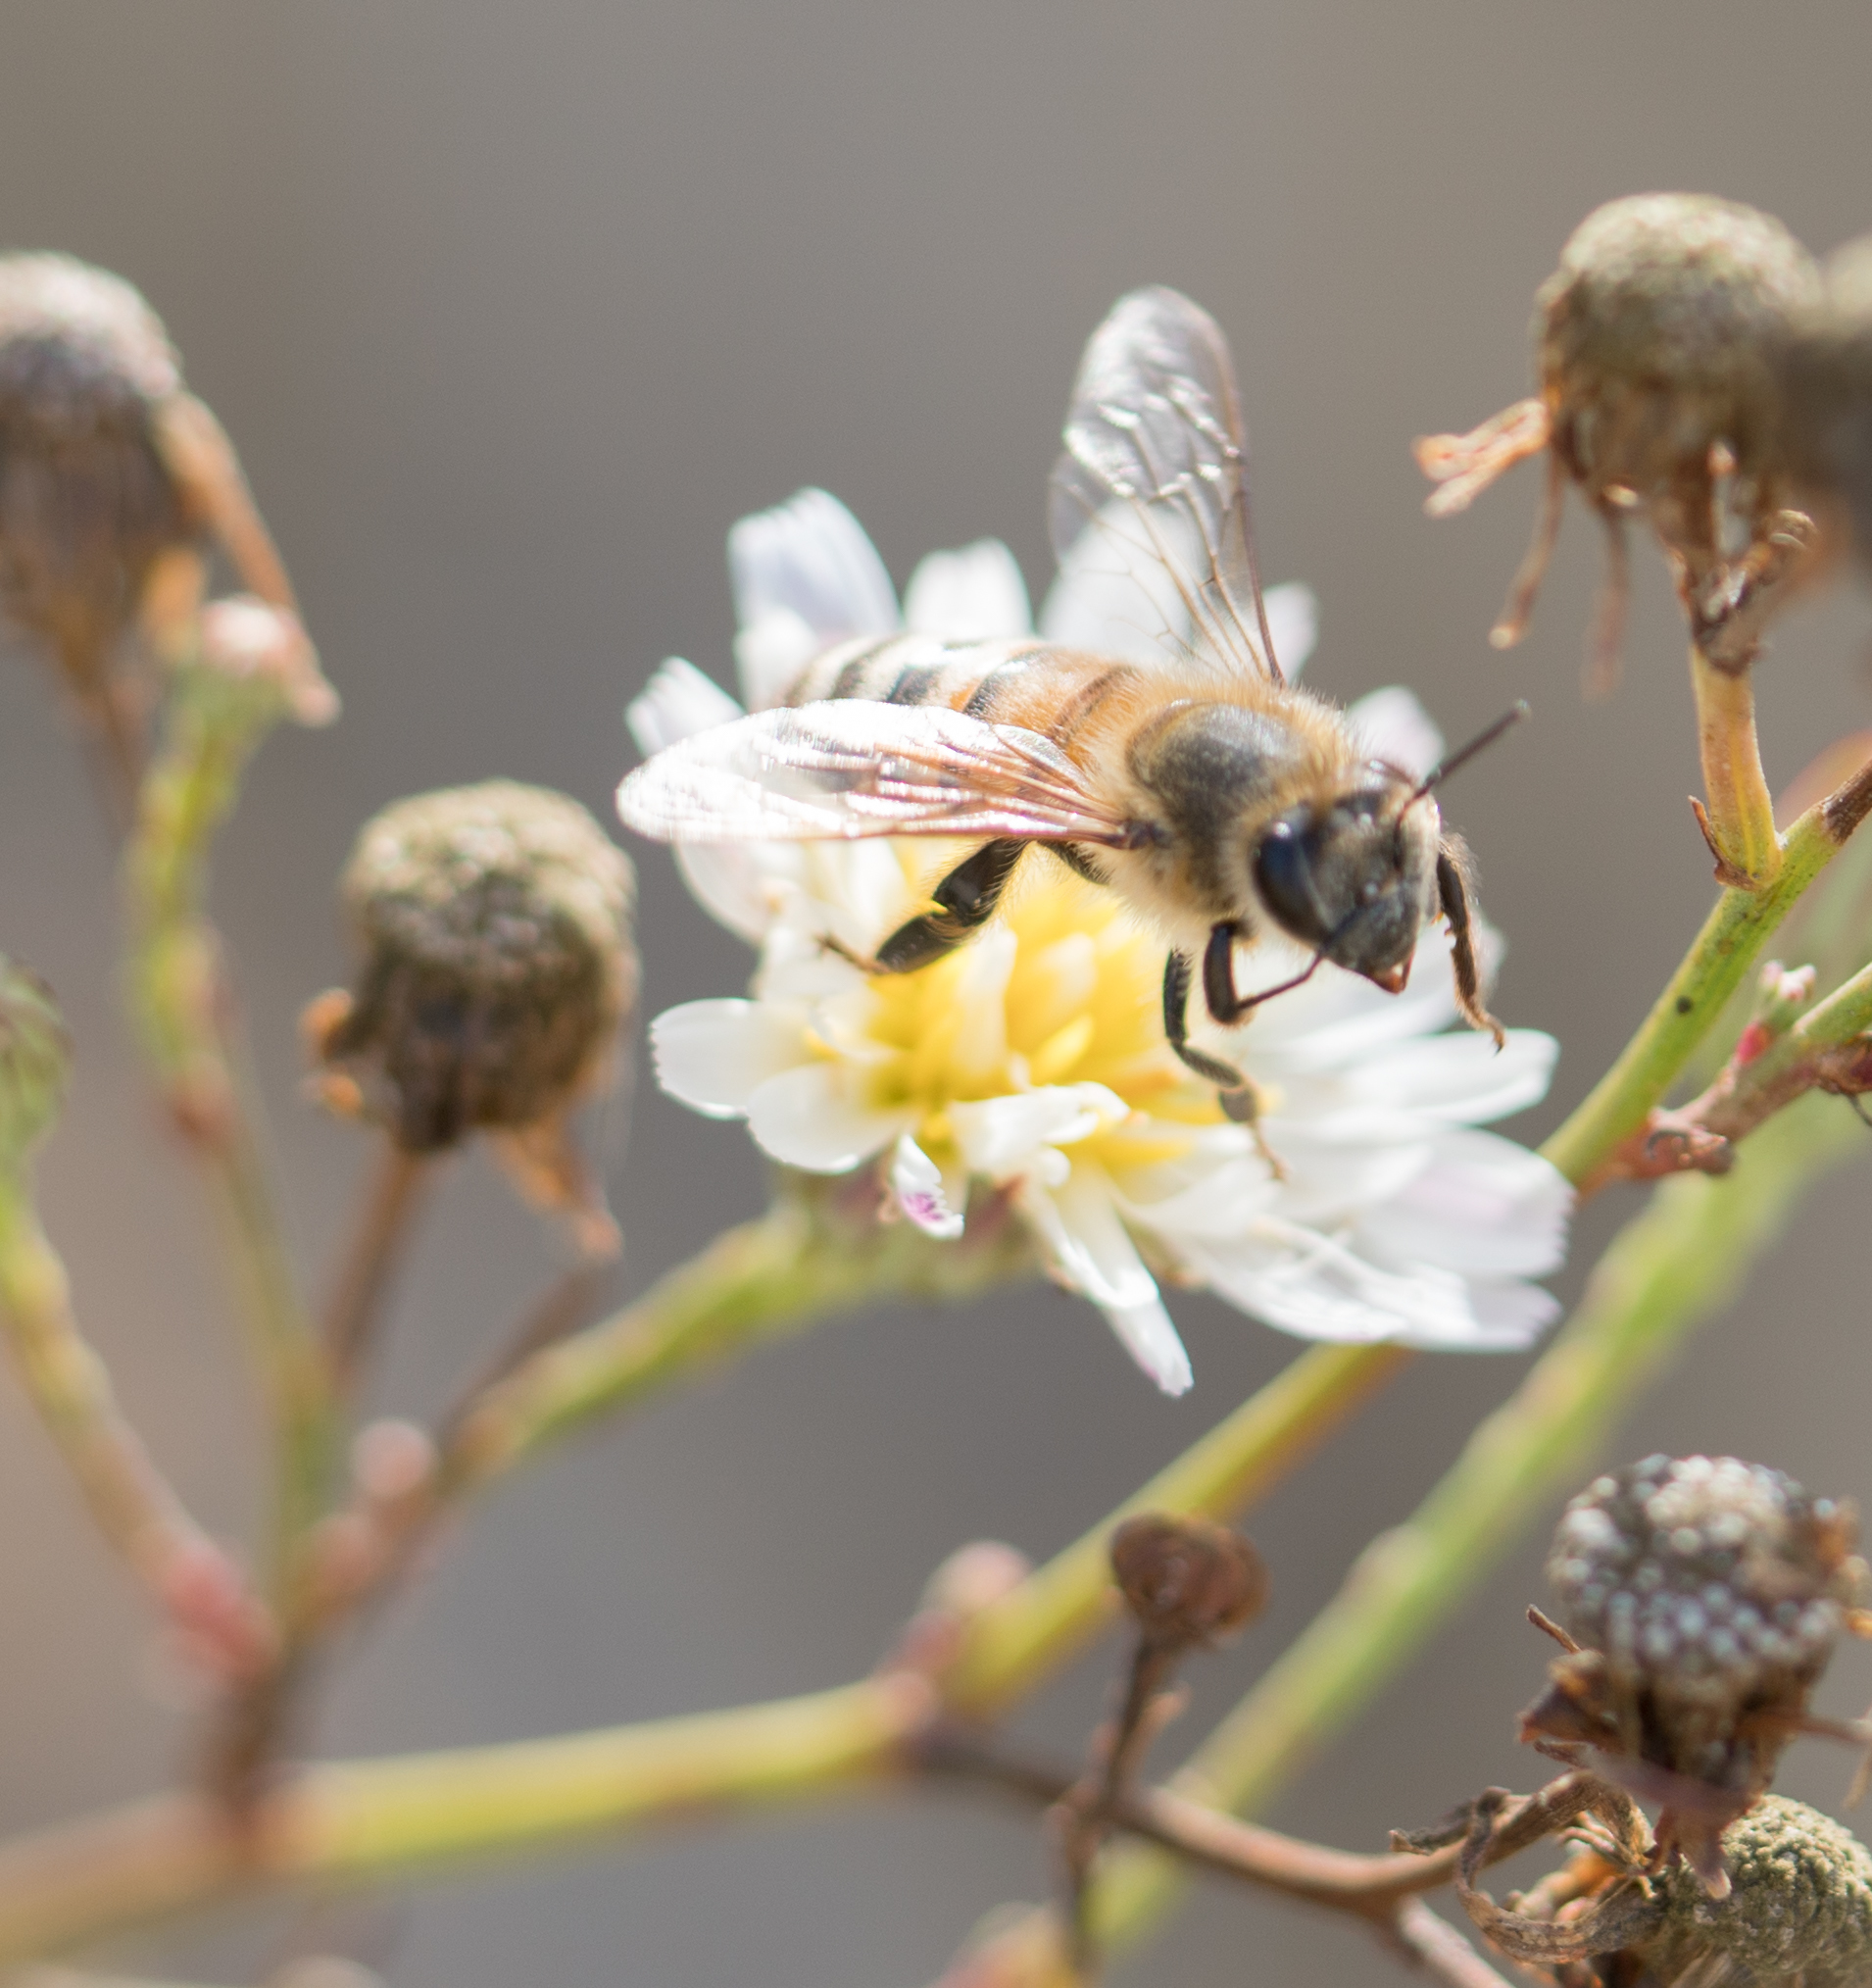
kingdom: Animalia
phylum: Arthropoda
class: Insecta
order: Hymenoptera
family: Apidae
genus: Apis
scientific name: Apis mellifera
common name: Honey bee
